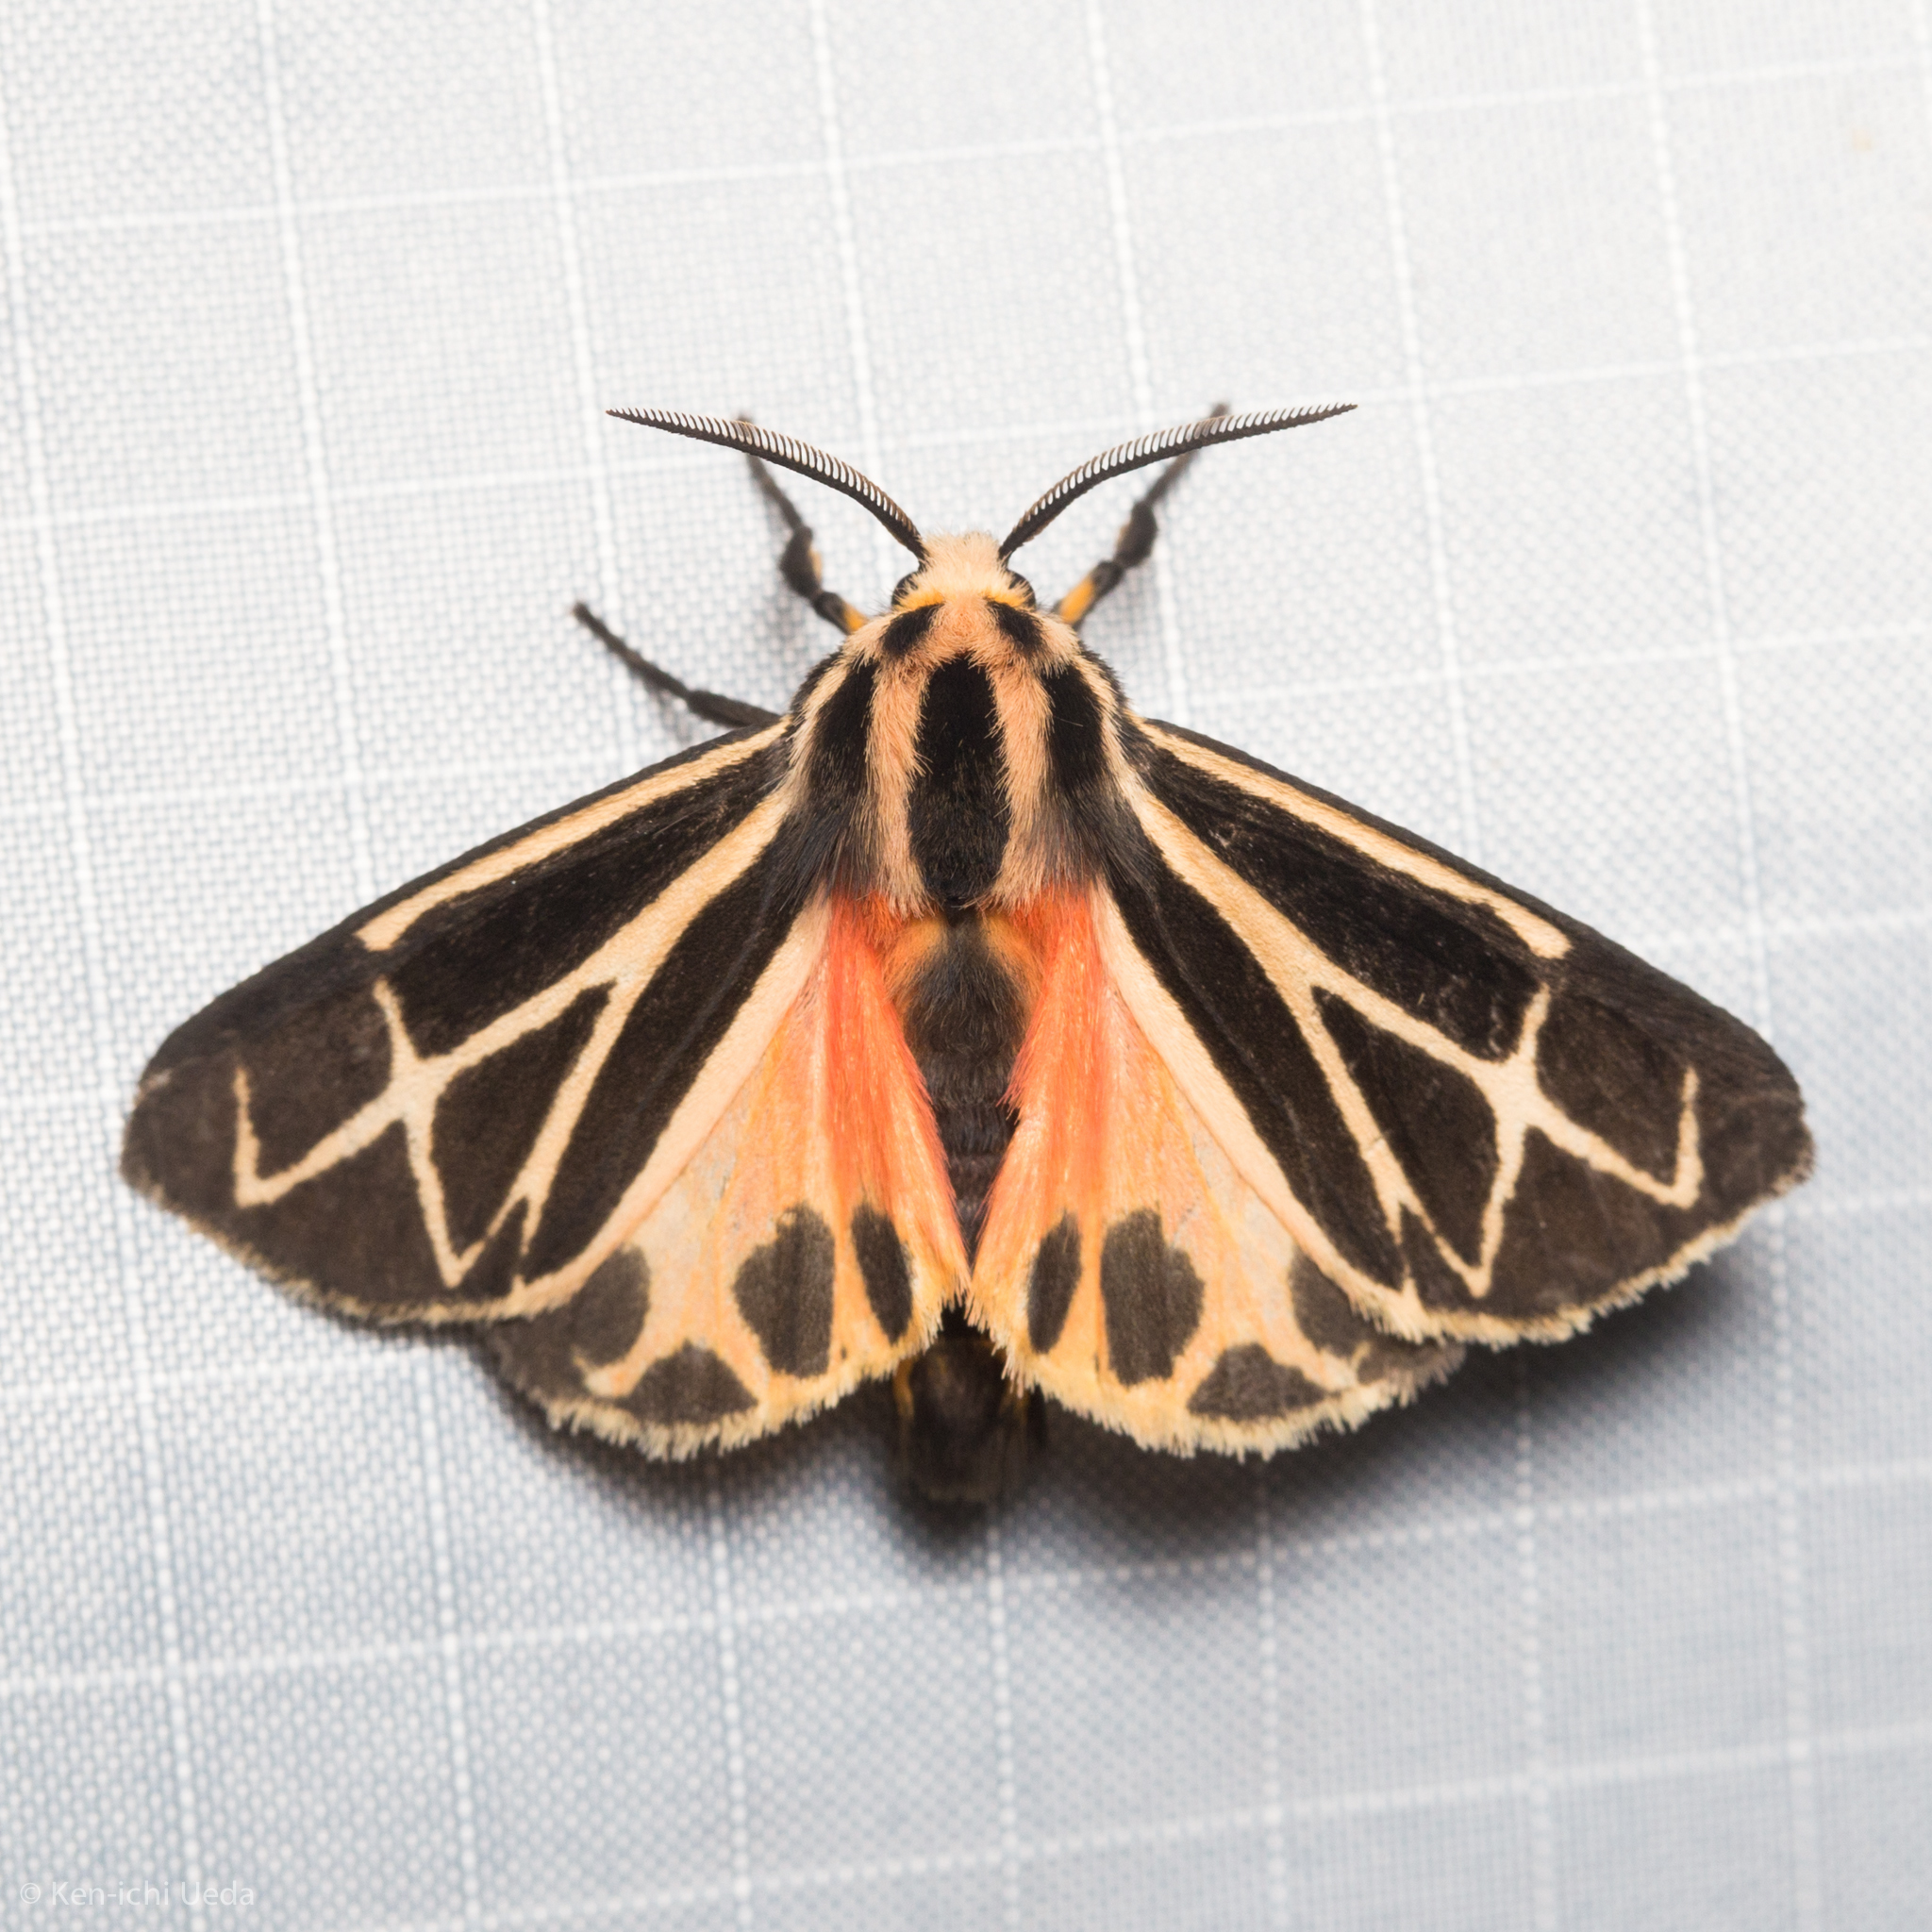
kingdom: Animalia
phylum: Arthropoda
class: Insecta
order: Lepidoptera
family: Erebidae
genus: Apantesis
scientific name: Apantesis phalerata
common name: Harnessed tiger moth
